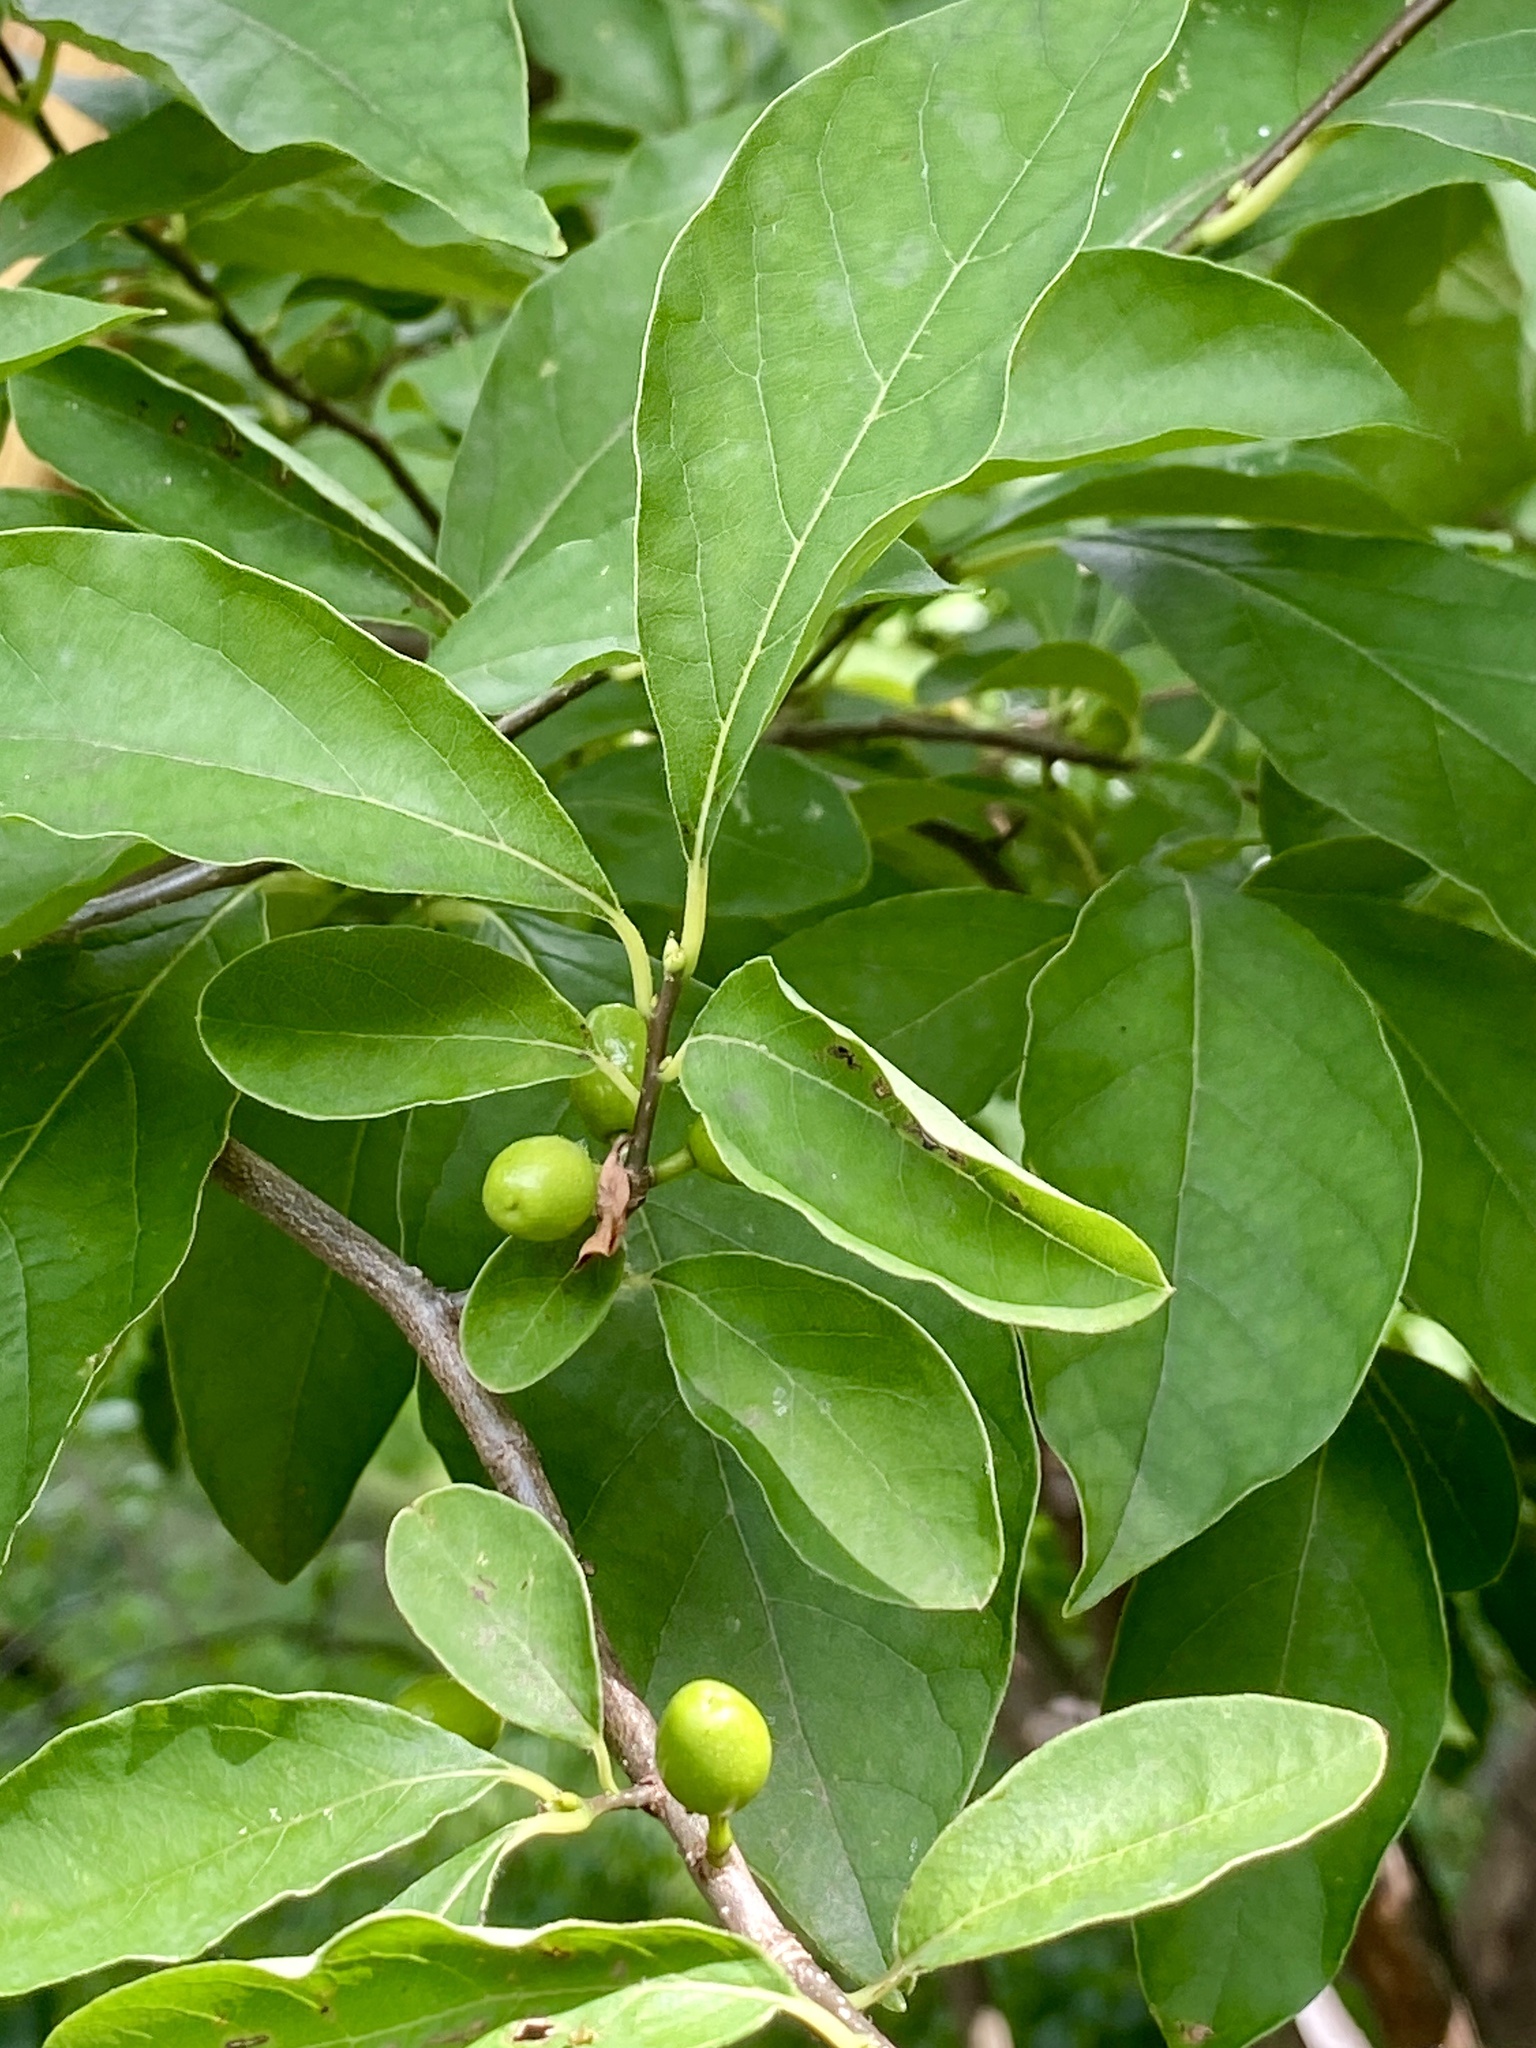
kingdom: Plantae
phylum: Tracheophyta
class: Magnoliopsida
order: Laurales
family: Lauraceae
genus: Lindera
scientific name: Lindera benzoin
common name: Spicebush
